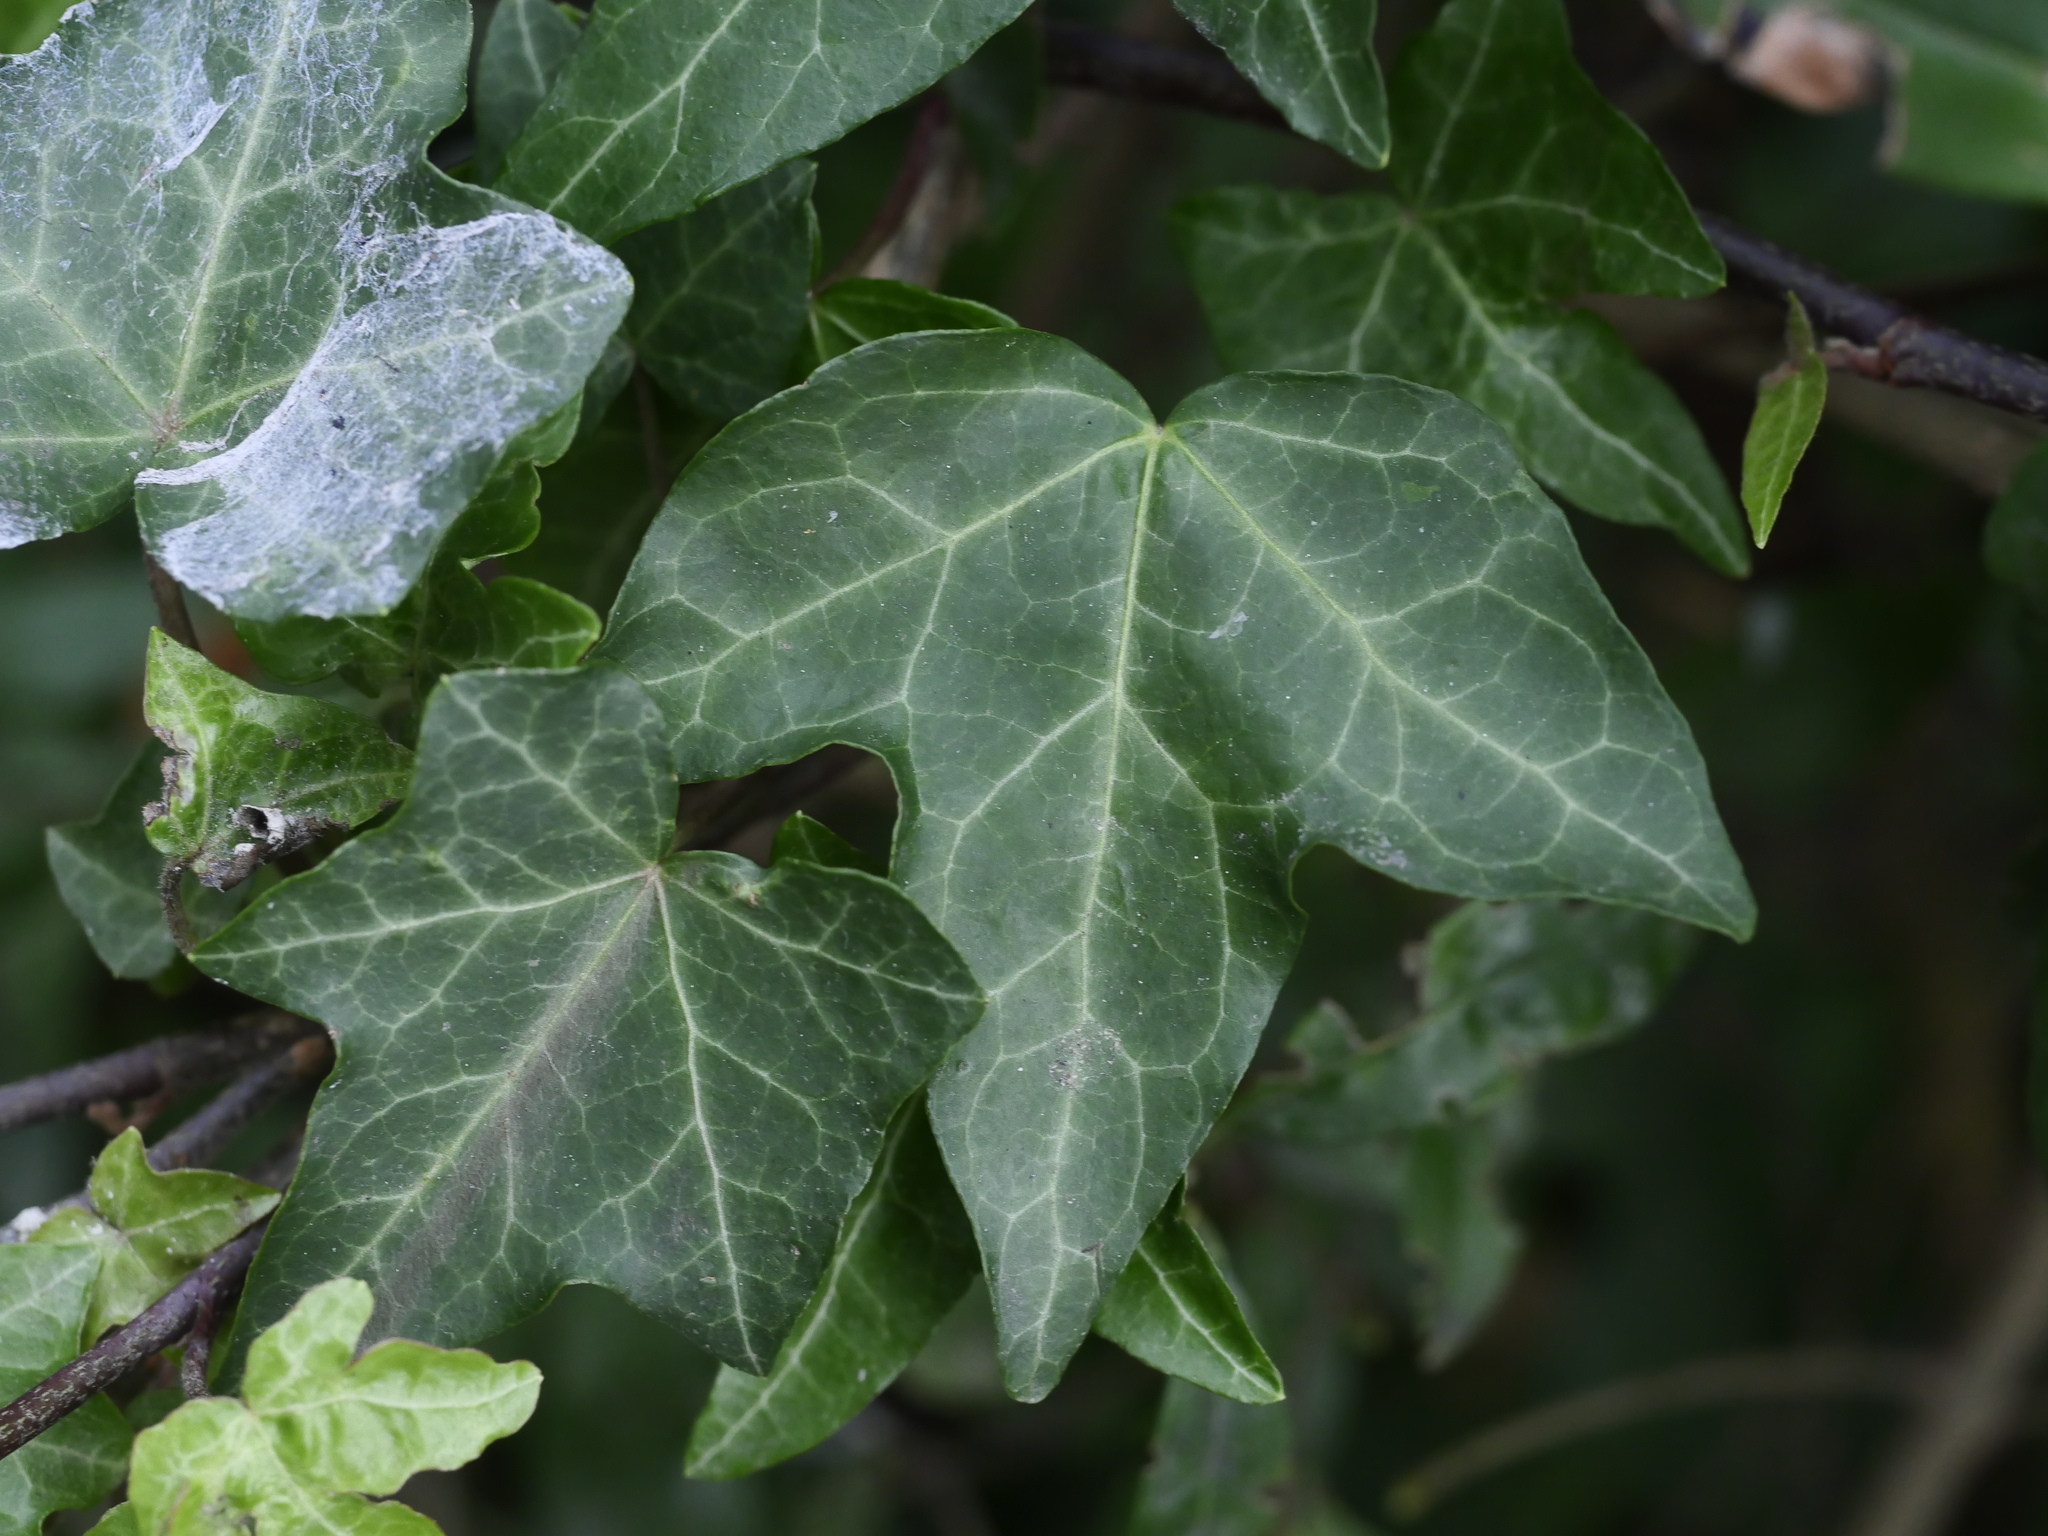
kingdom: Plantae
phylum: Tracheophyta
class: Magnoliopsida
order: Apiales
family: Araliaceae
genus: Hedera
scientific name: Hedera helix
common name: Ivy
